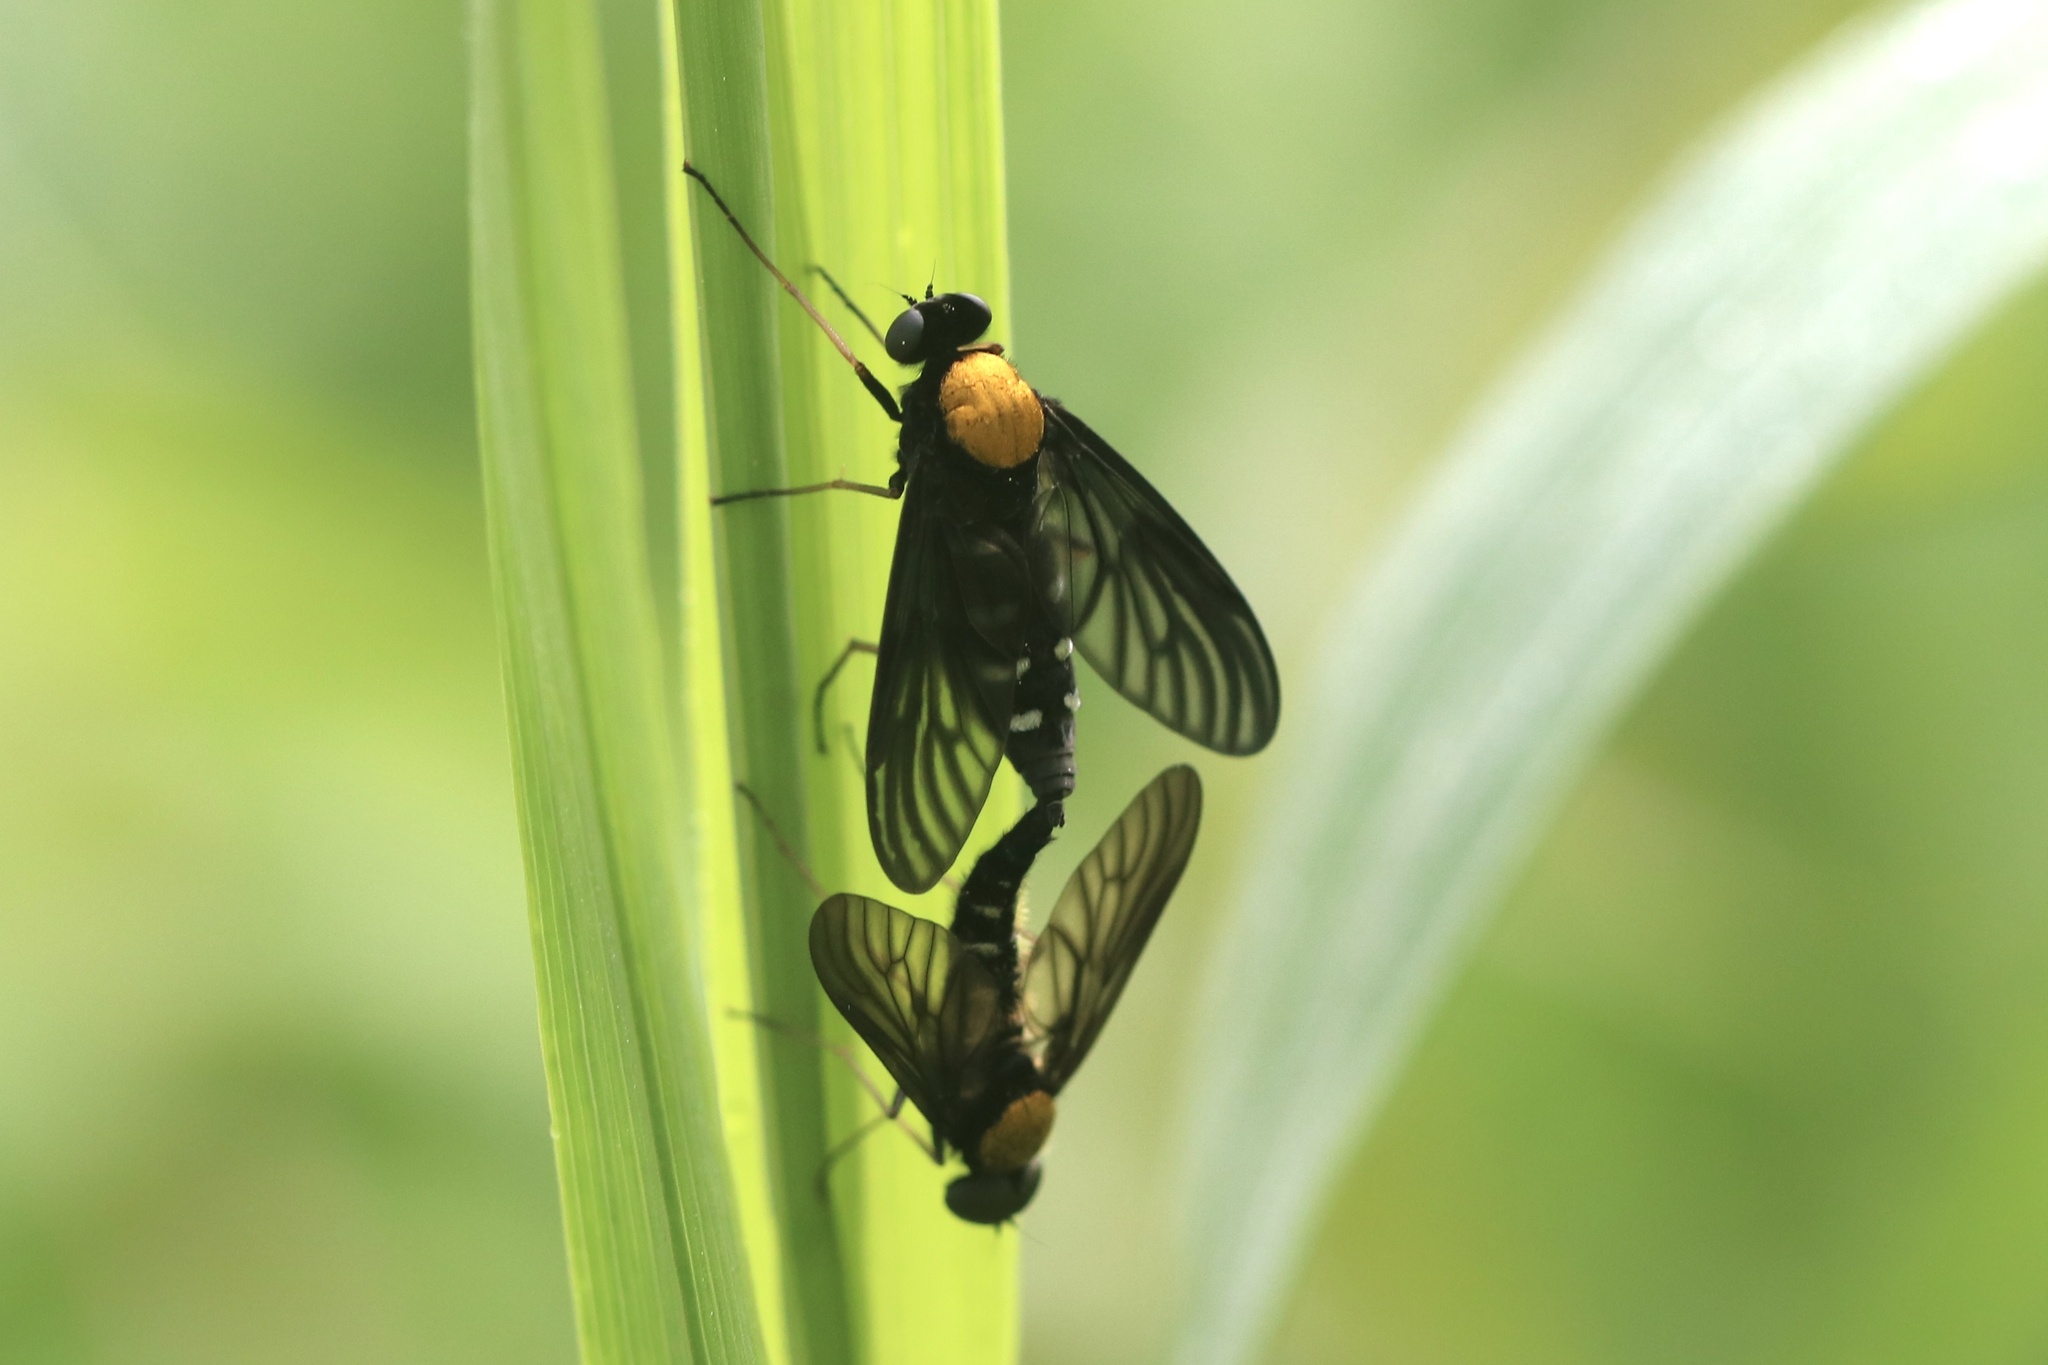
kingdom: Animalia
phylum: Arthropoda
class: Insecta
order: Diptera
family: Rhagionidae
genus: Chrysopilus
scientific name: Chrysopilus thoracicus
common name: Golden-backed snipe fly
